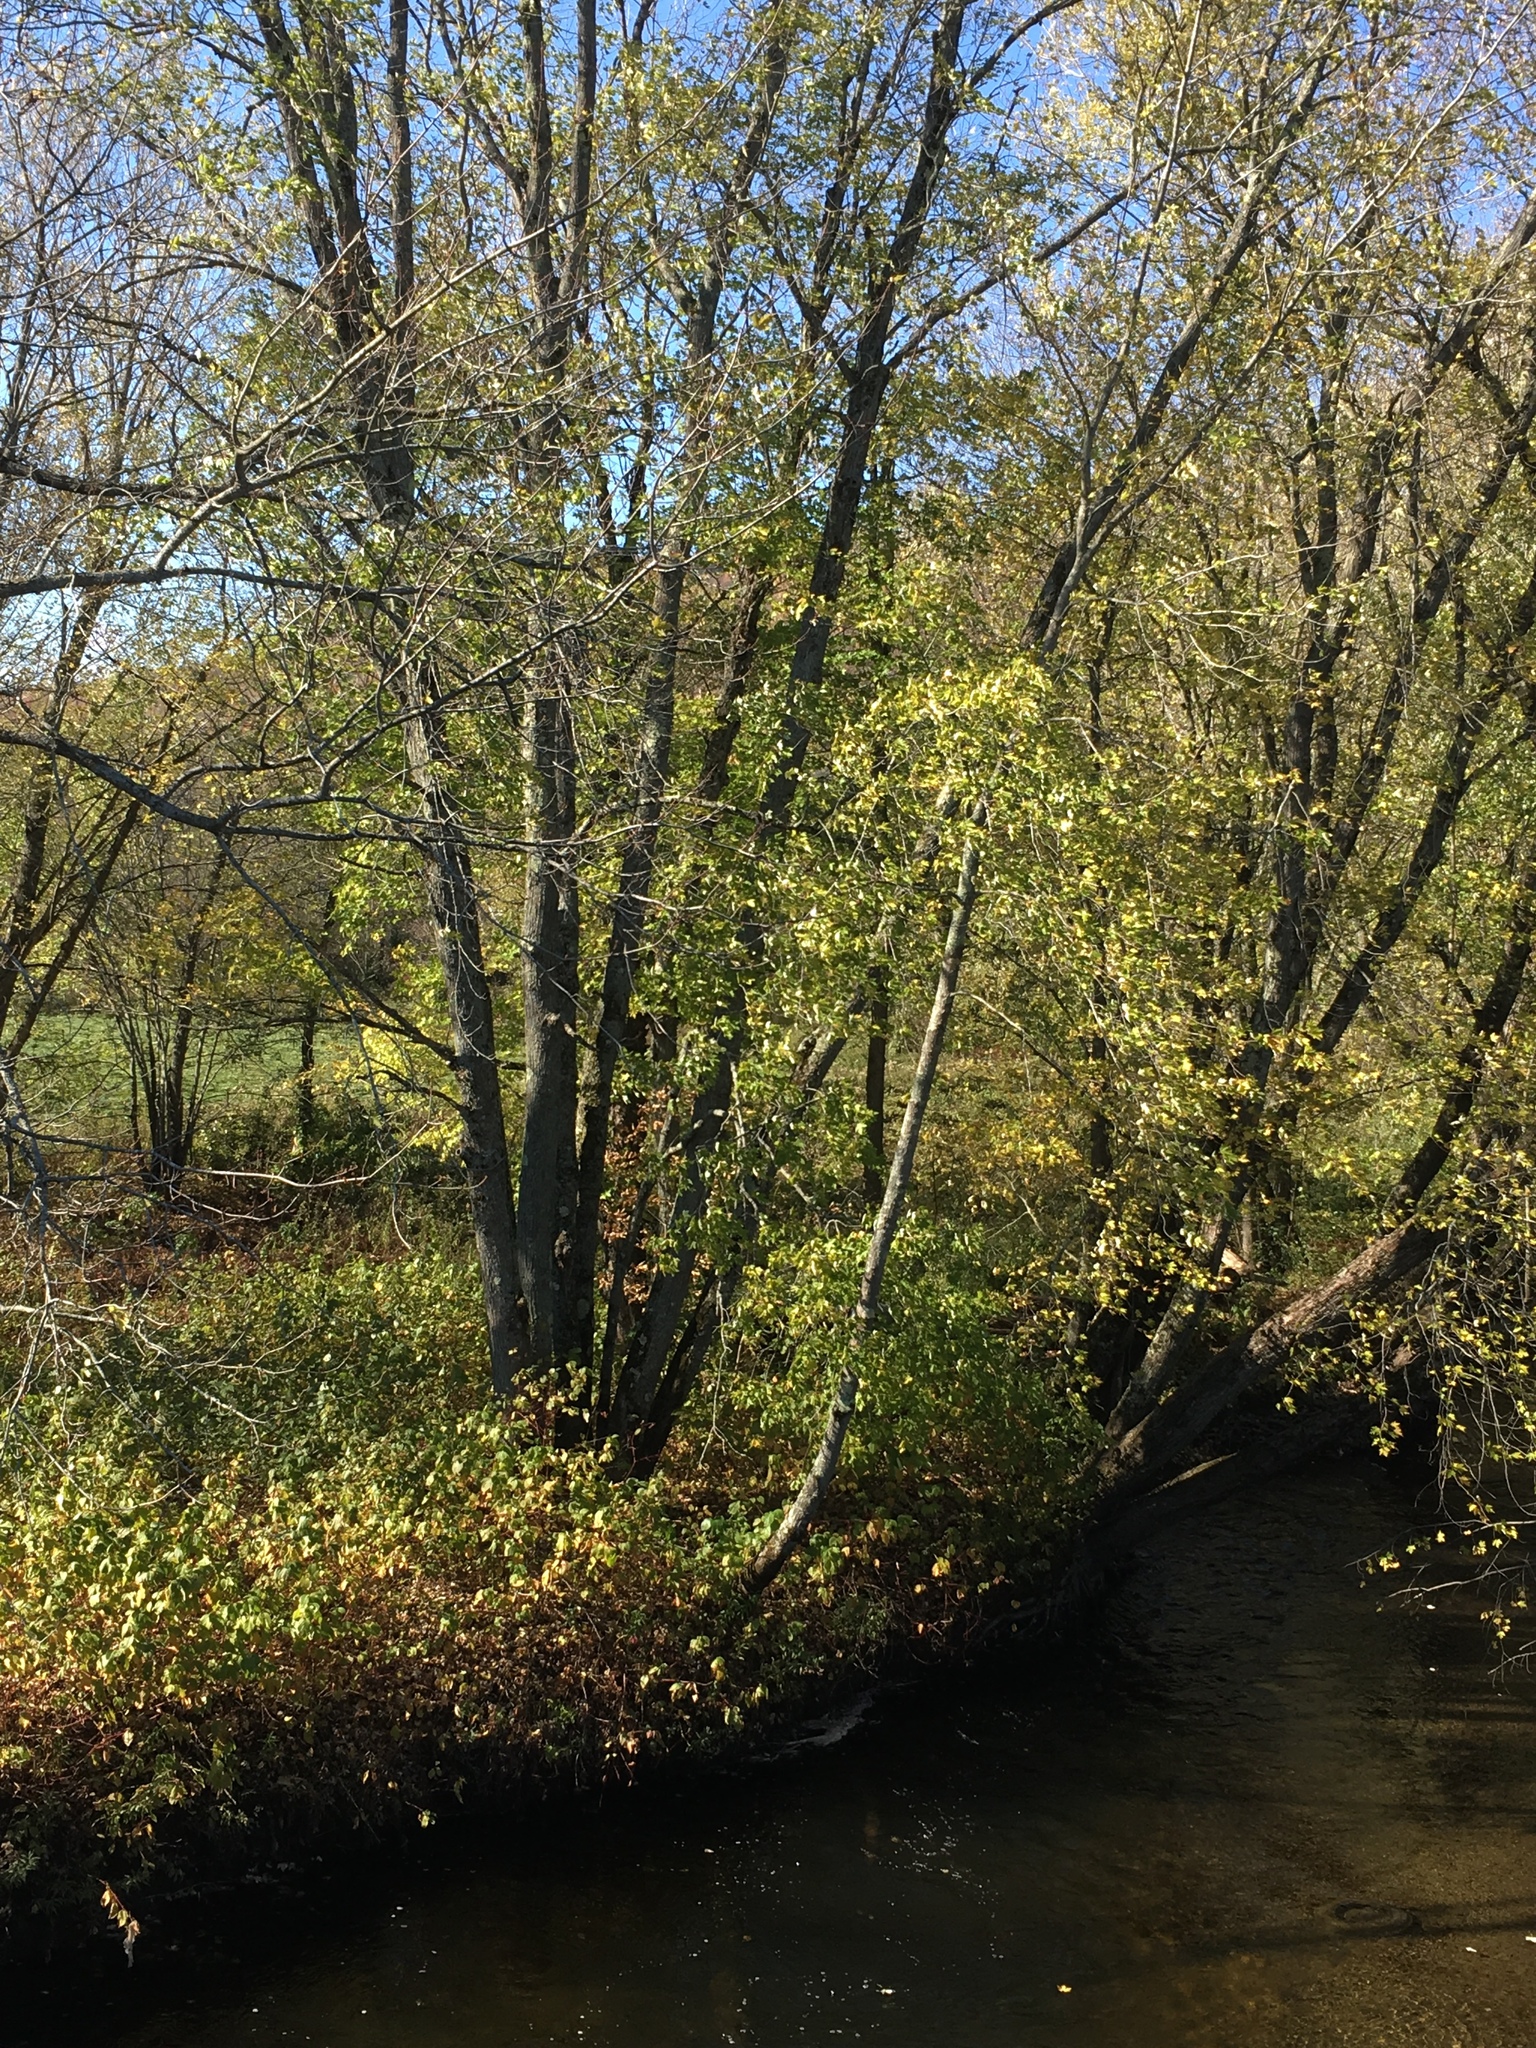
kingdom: Plantae
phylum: Tracheophyta
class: Magnoliopsida
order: Sapindales
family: Sapindaceae
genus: Acer
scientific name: Acer saccharinum
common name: Silver maple
